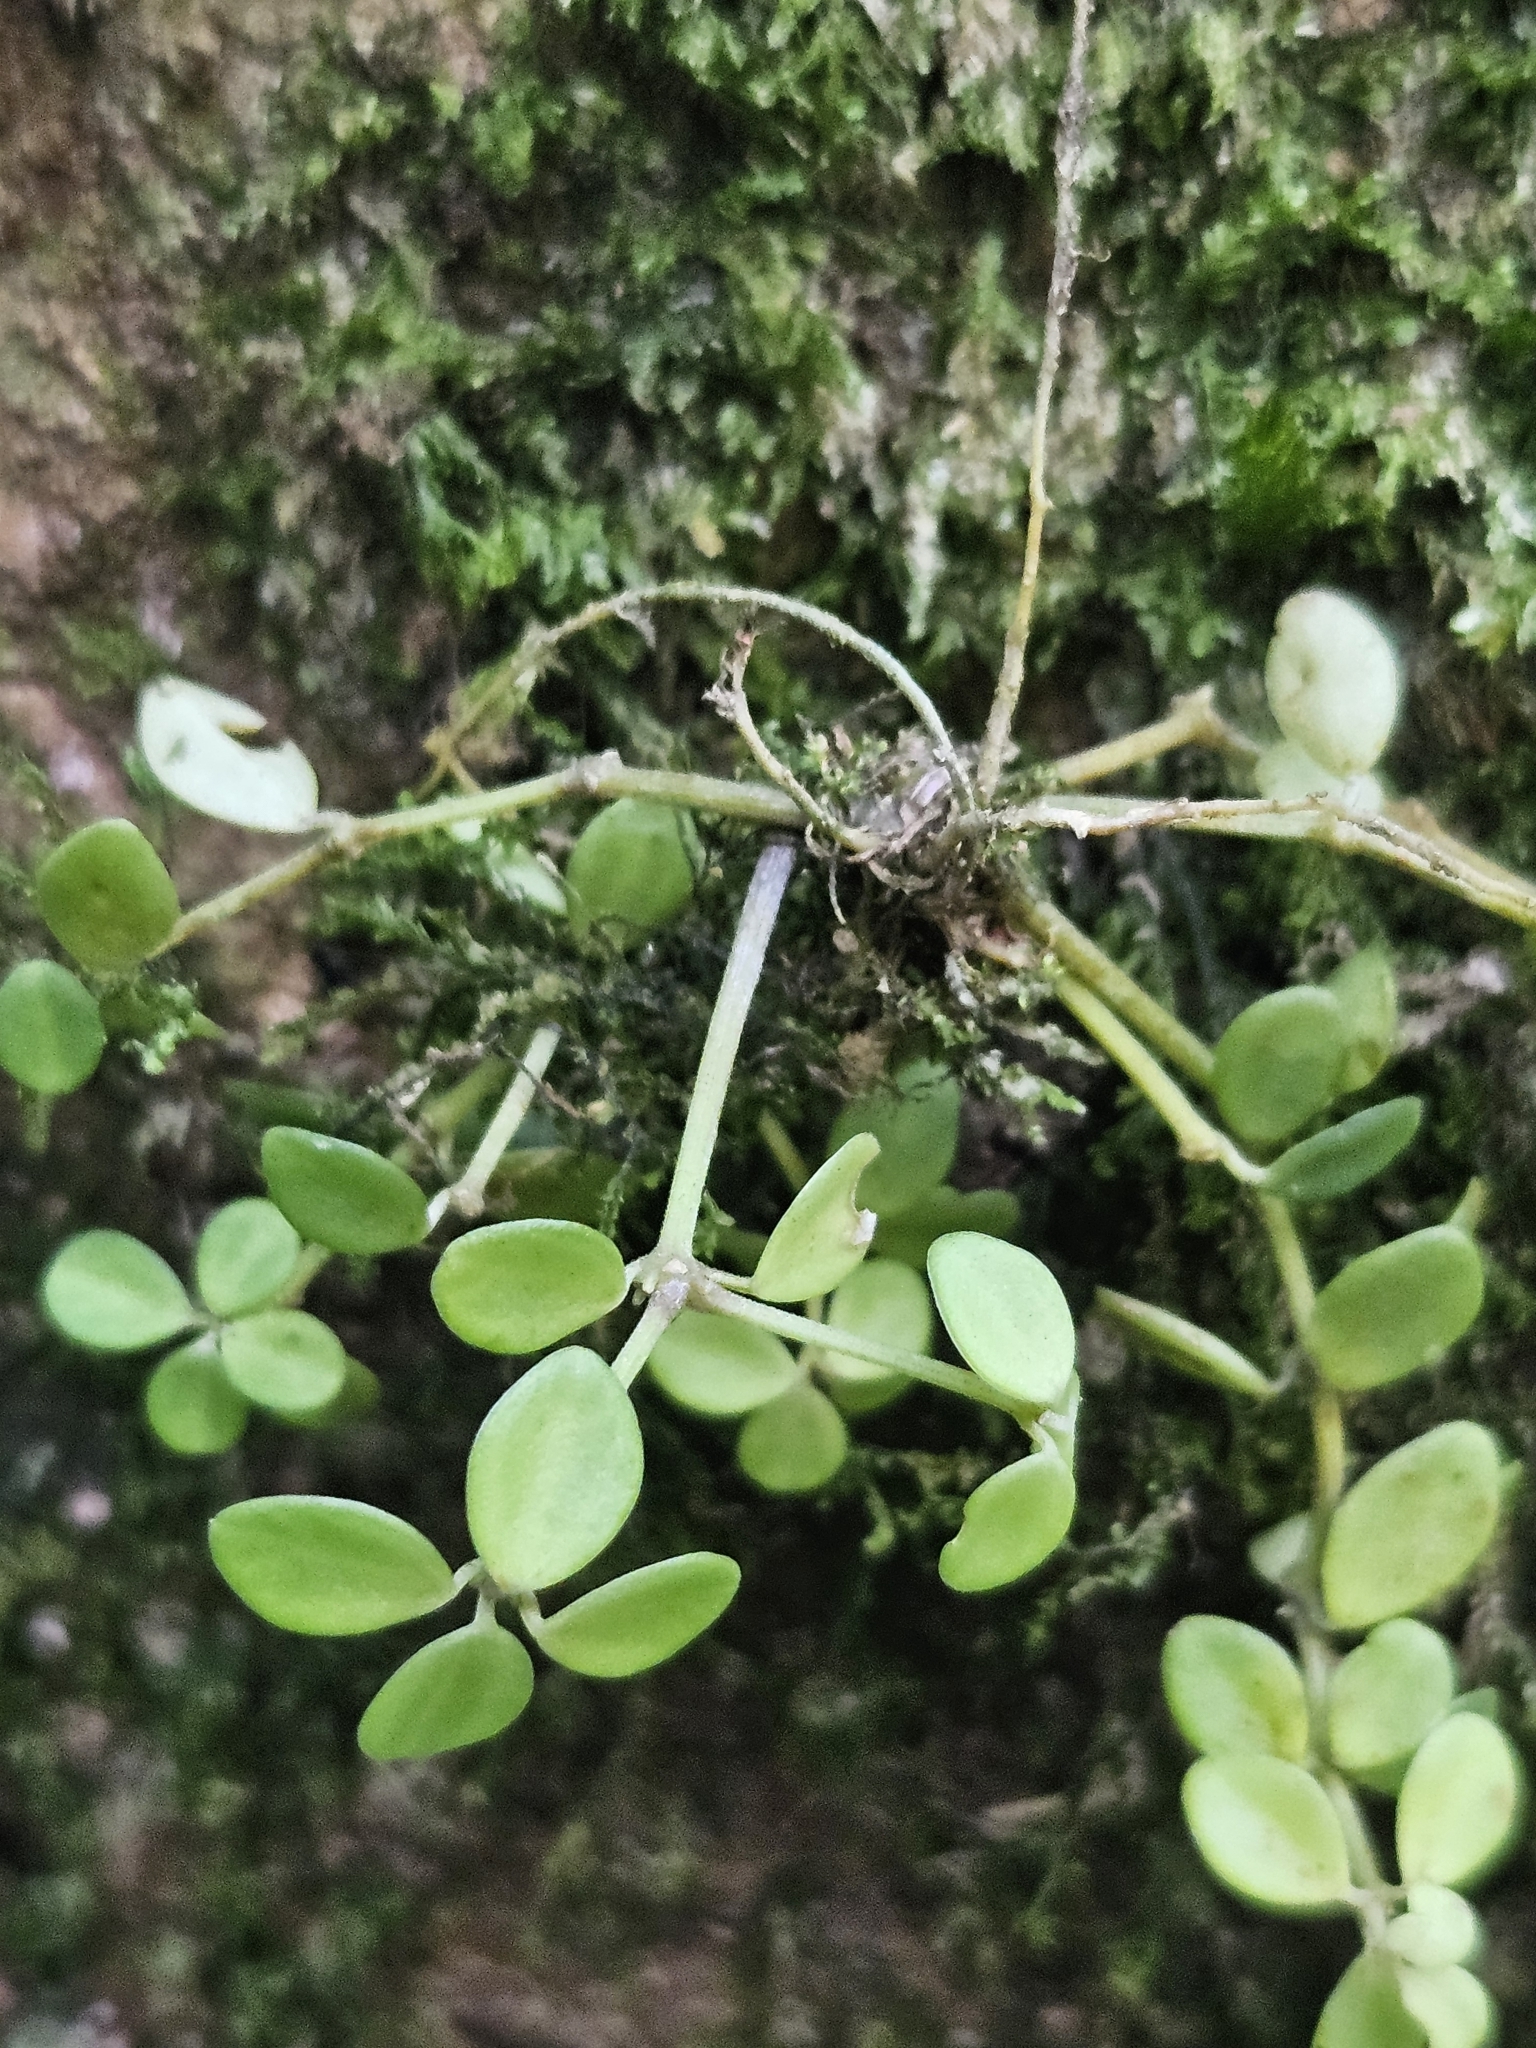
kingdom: Plantae
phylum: Tracheophyta
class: Magnoliopsida
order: Piperales
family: Piperaceae
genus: Peperomia
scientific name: Peperomia tetraphylla
